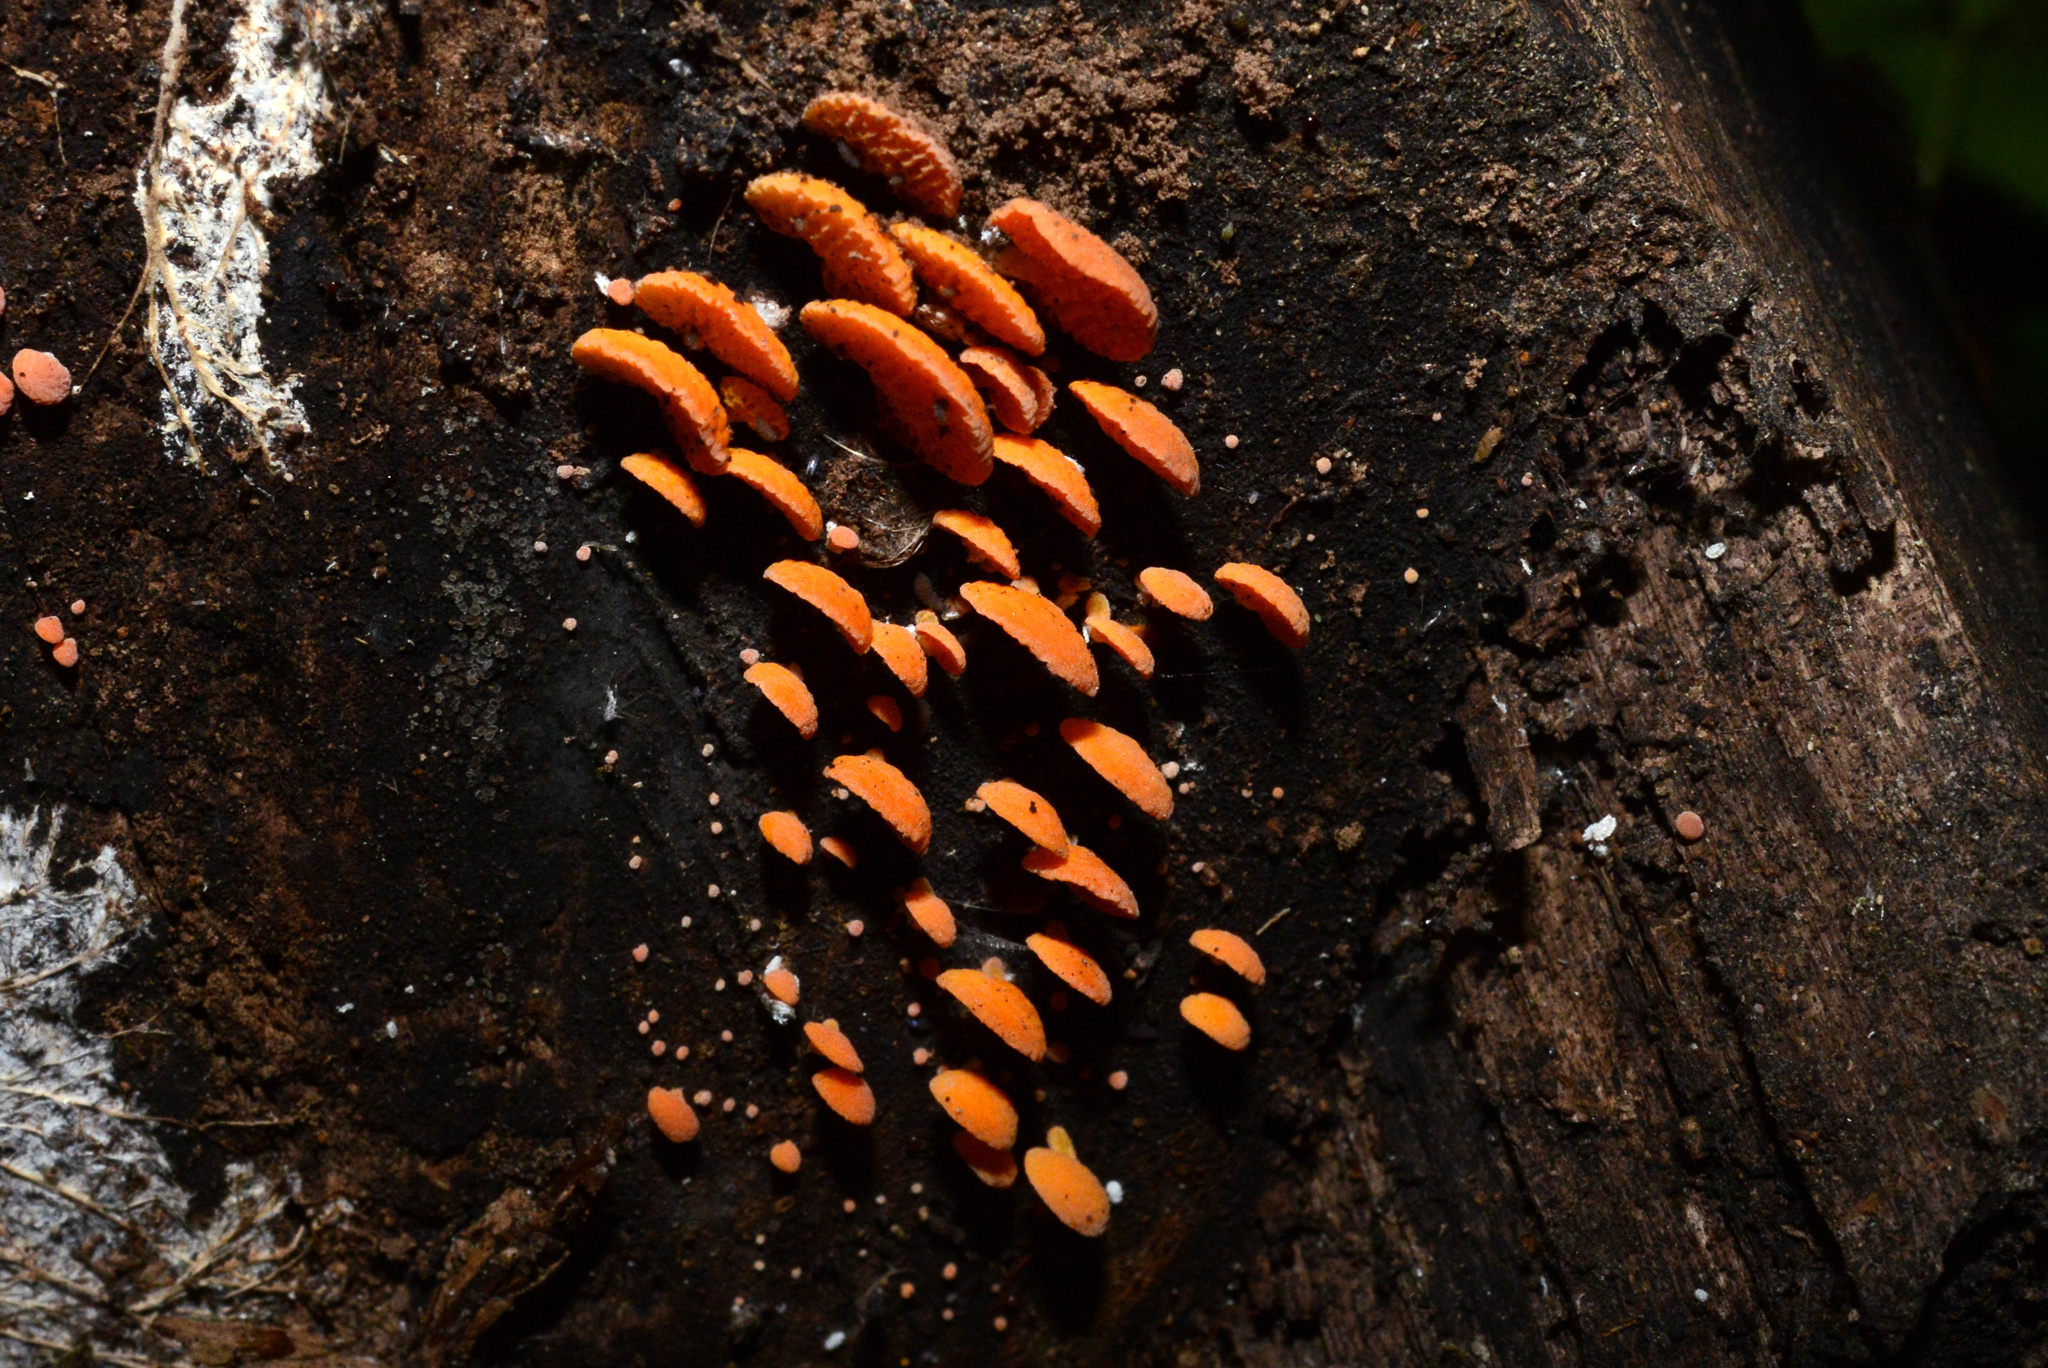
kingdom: Fungi
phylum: Basidiomycota
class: Agaricomycetes
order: Agaricales
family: Mycenaceae
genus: Favolaschia
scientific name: Favolaschia claudopus
